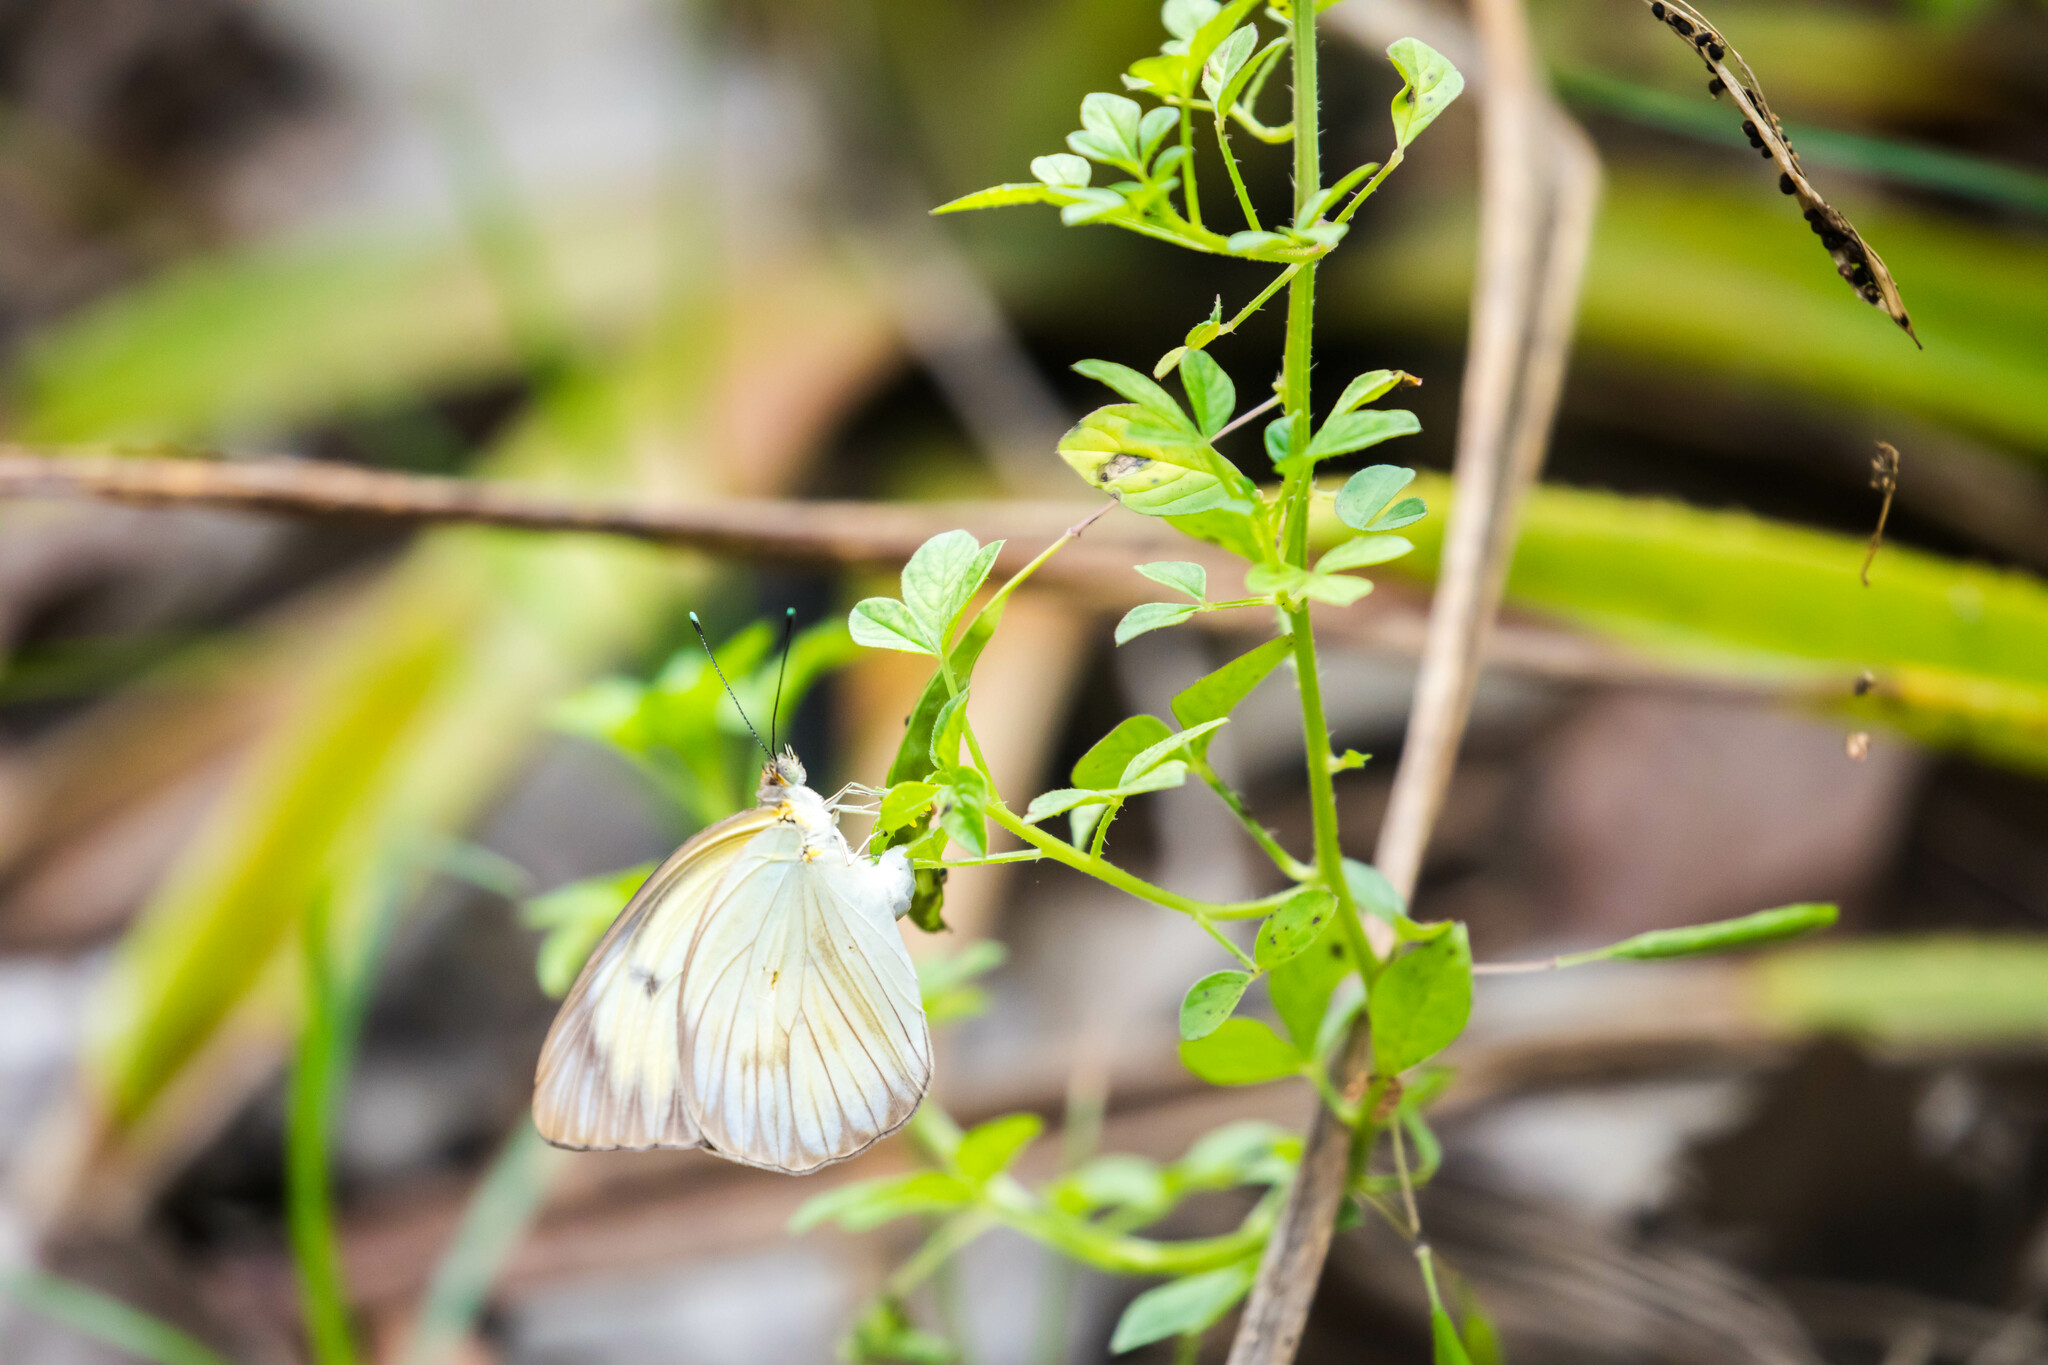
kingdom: Animalia
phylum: Arthropoda
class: Insecta
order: Lepidoptera
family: Pieridae
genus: Ascia
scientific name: Ascia monuste
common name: Great southern white
